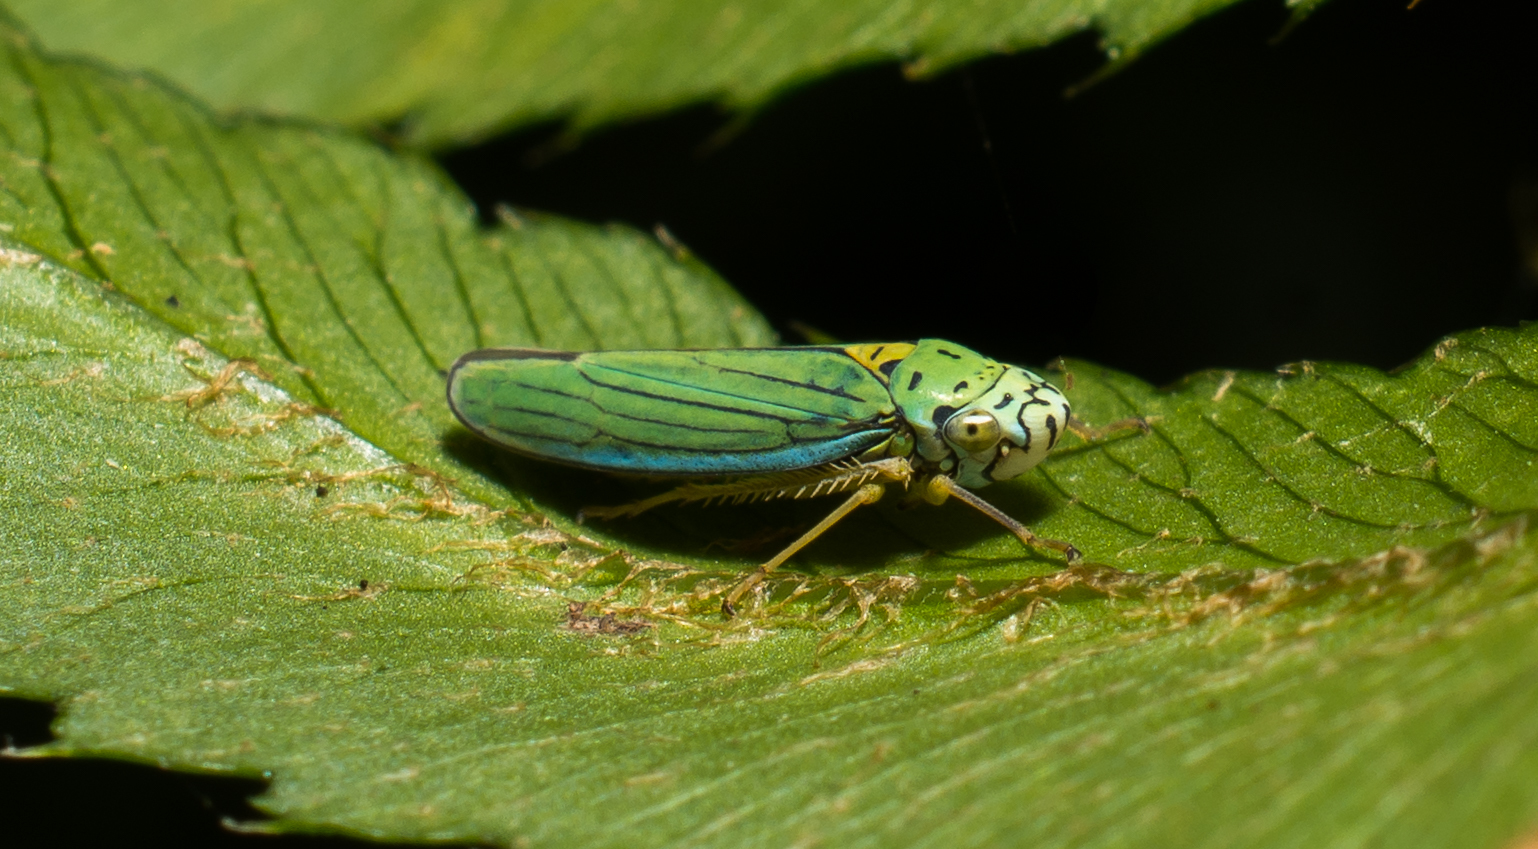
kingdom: Animalia
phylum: Arthropoda
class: Insecta
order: Hemiptera
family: Cicadellidae
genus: Graphocephala
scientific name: Graphocephala atropunctata
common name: Blue-green sharpshooter
